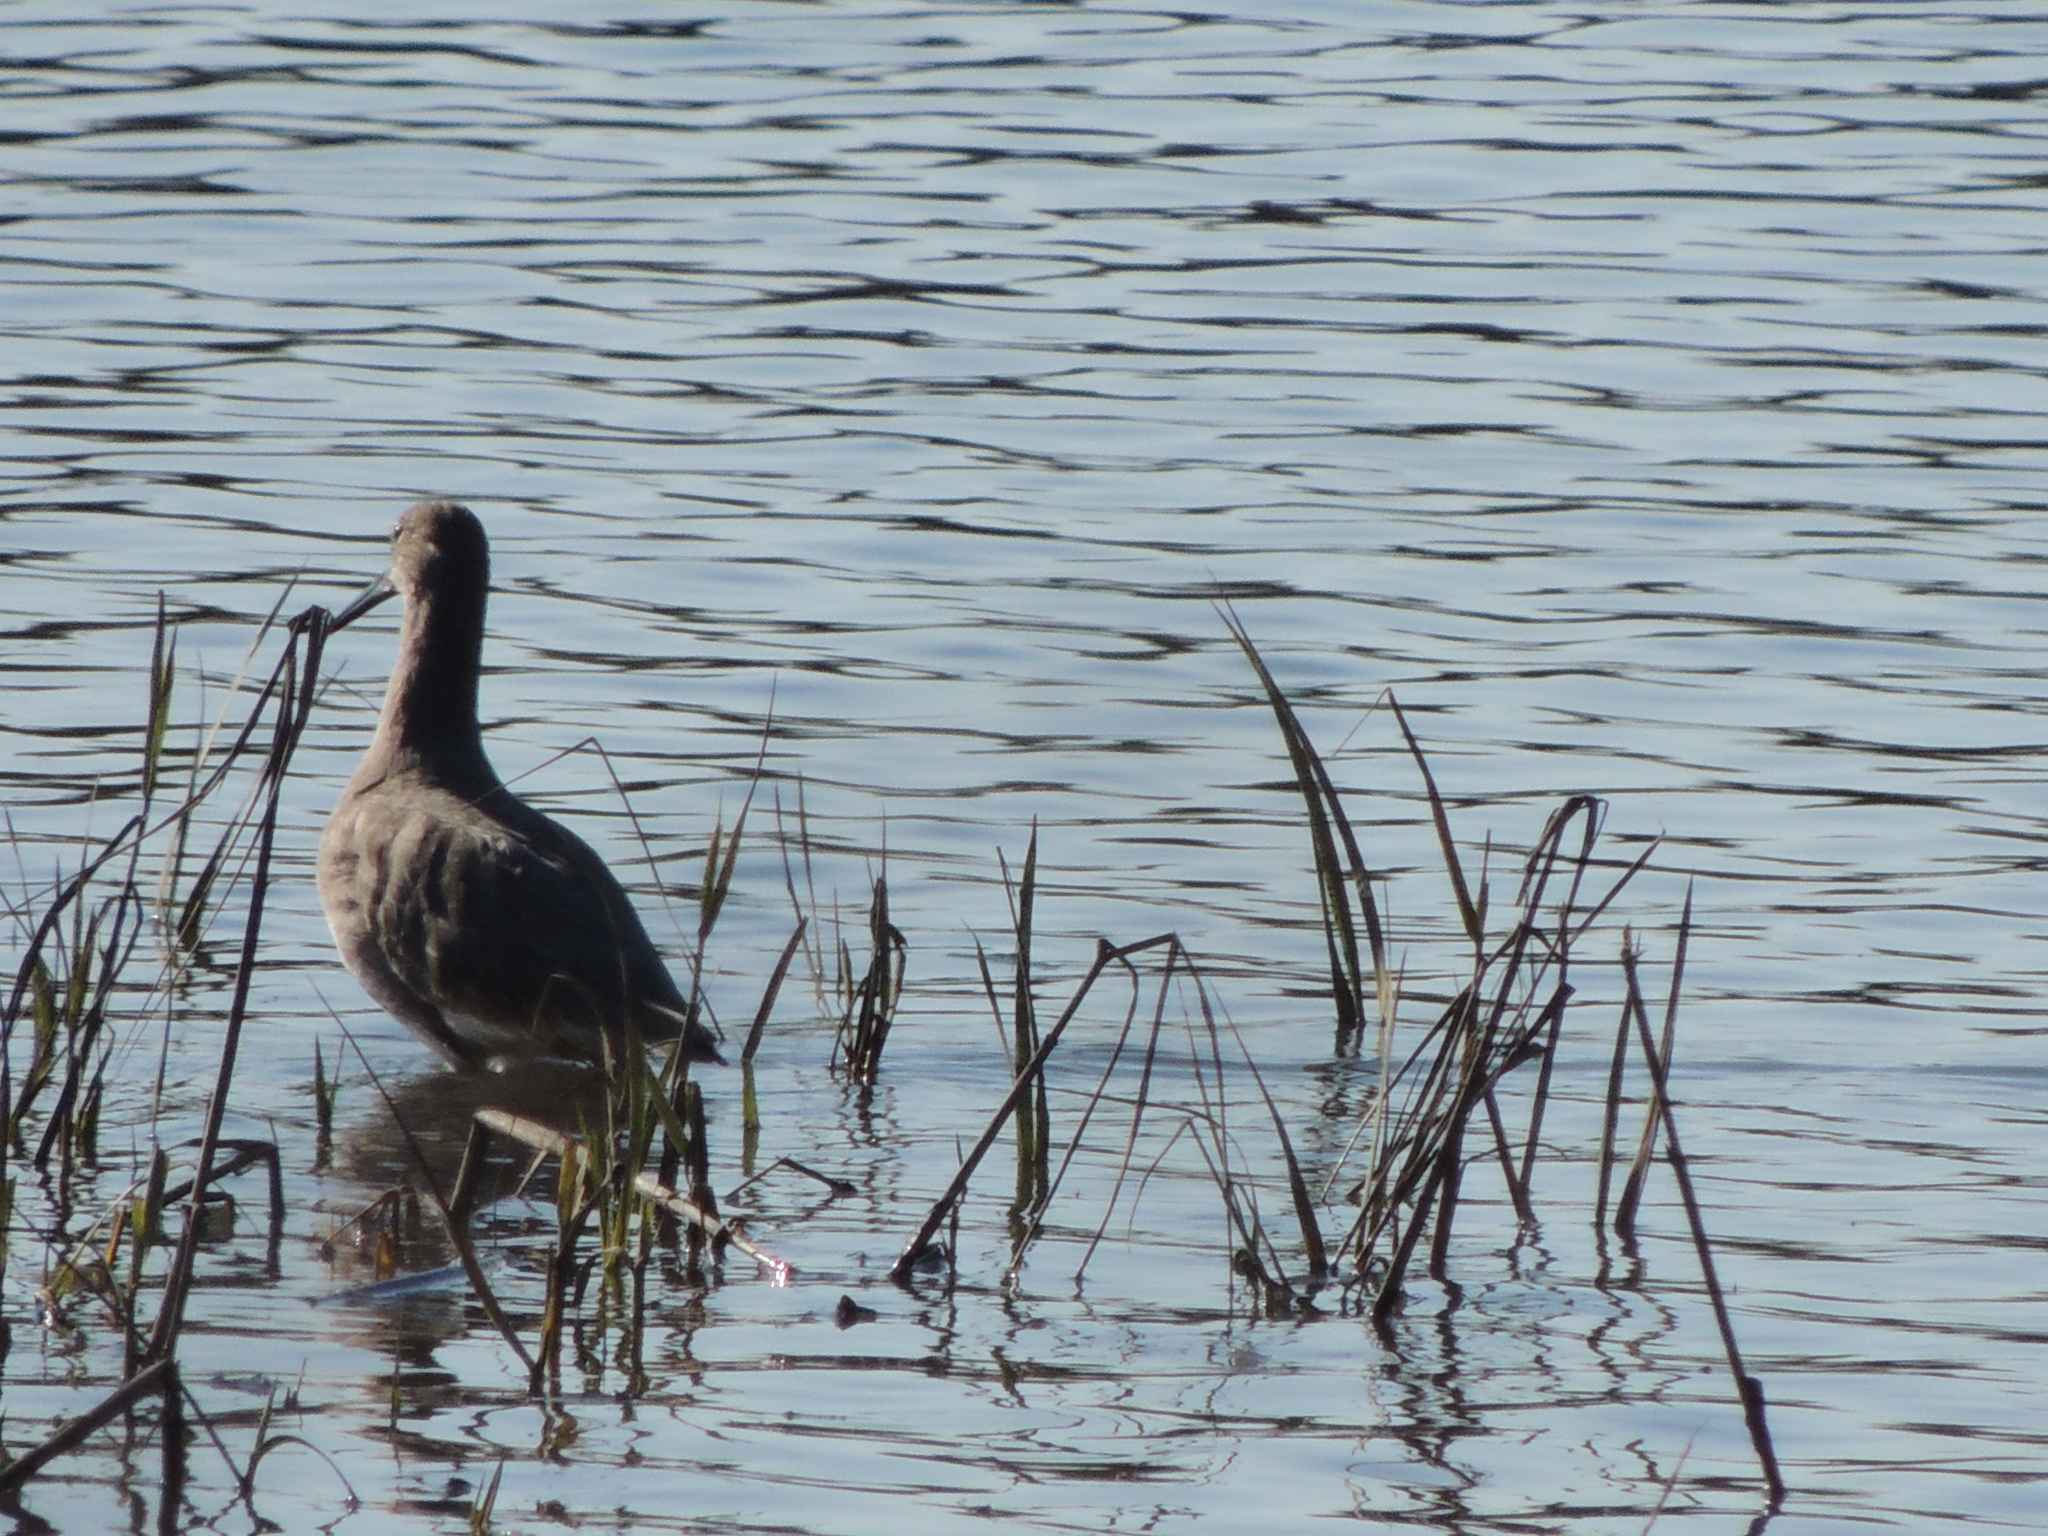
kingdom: Animalia
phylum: Chordata
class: Aves
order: Charadriiformes
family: Scolopacidae
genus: Tringa
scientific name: Tringa semipalmata
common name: Willet
